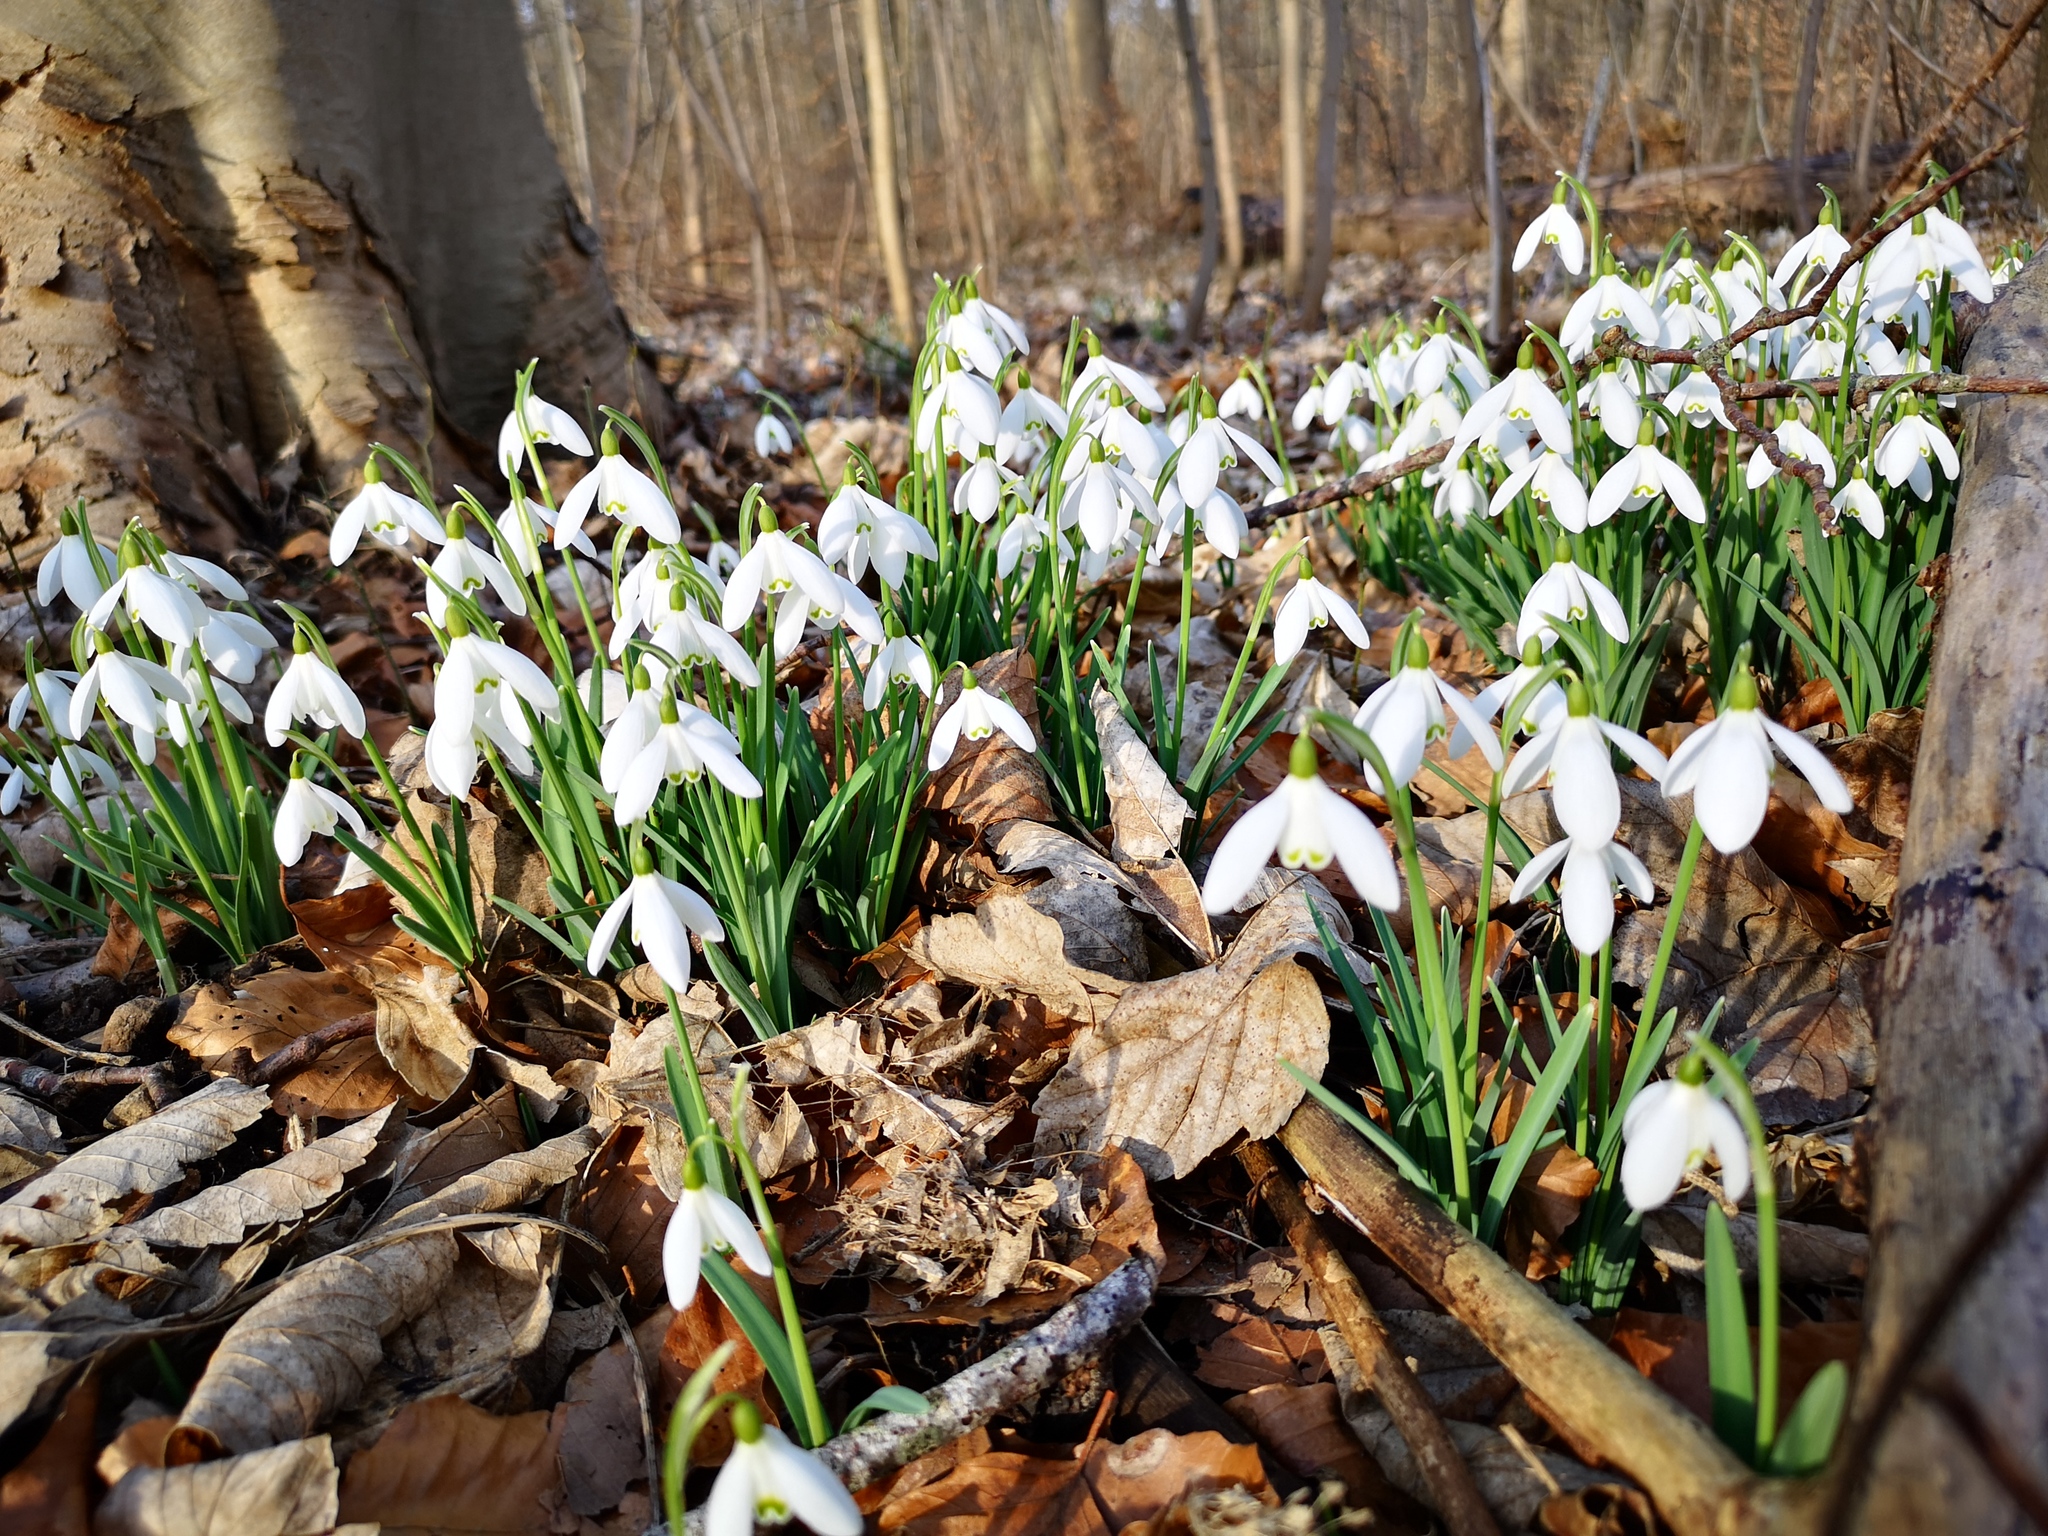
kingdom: Plantae
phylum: Tracheophyta
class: Liliopsida
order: Asparagales
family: Amaryllidaceae
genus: Galanthus
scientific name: Galanthus nivalis
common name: Snowdrop
